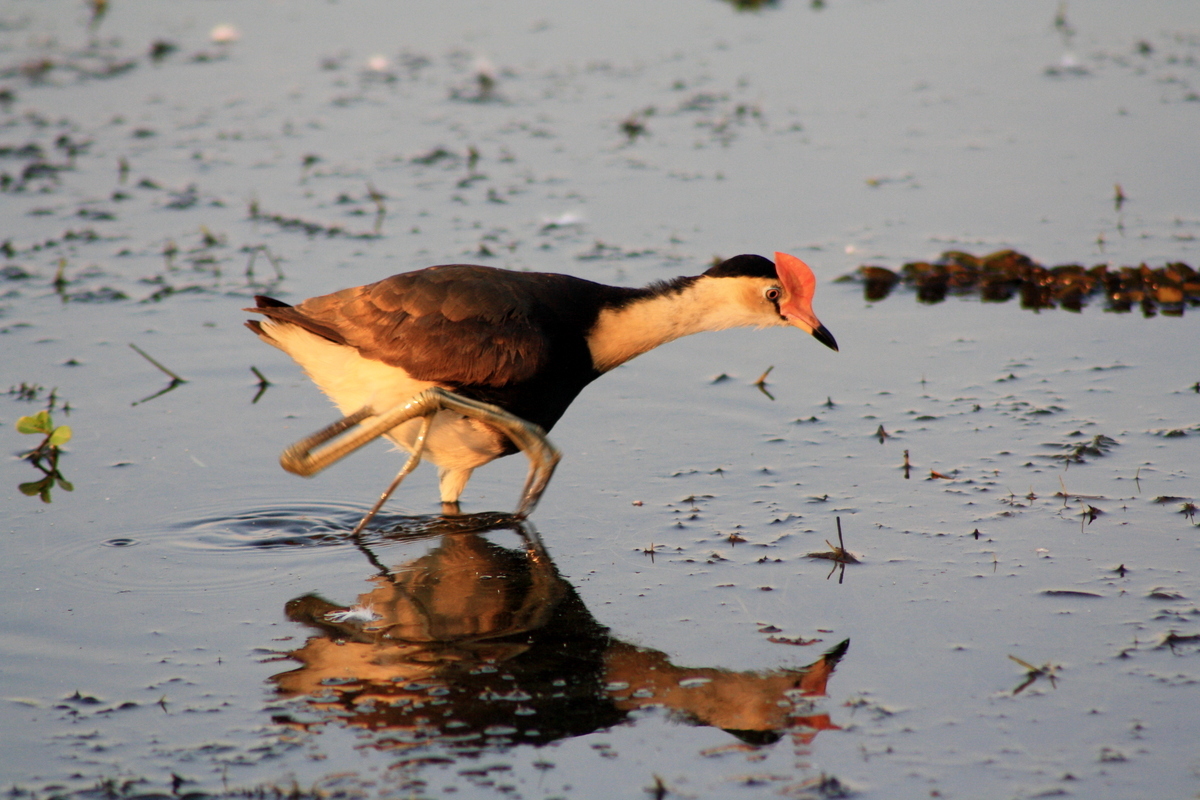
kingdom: Animalia
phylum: Chordata
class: Aves
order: Charadriiformes
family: Jacanidae
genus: Irediparra
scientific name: Irediparra gallinacea
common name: Comb-crested jacana
